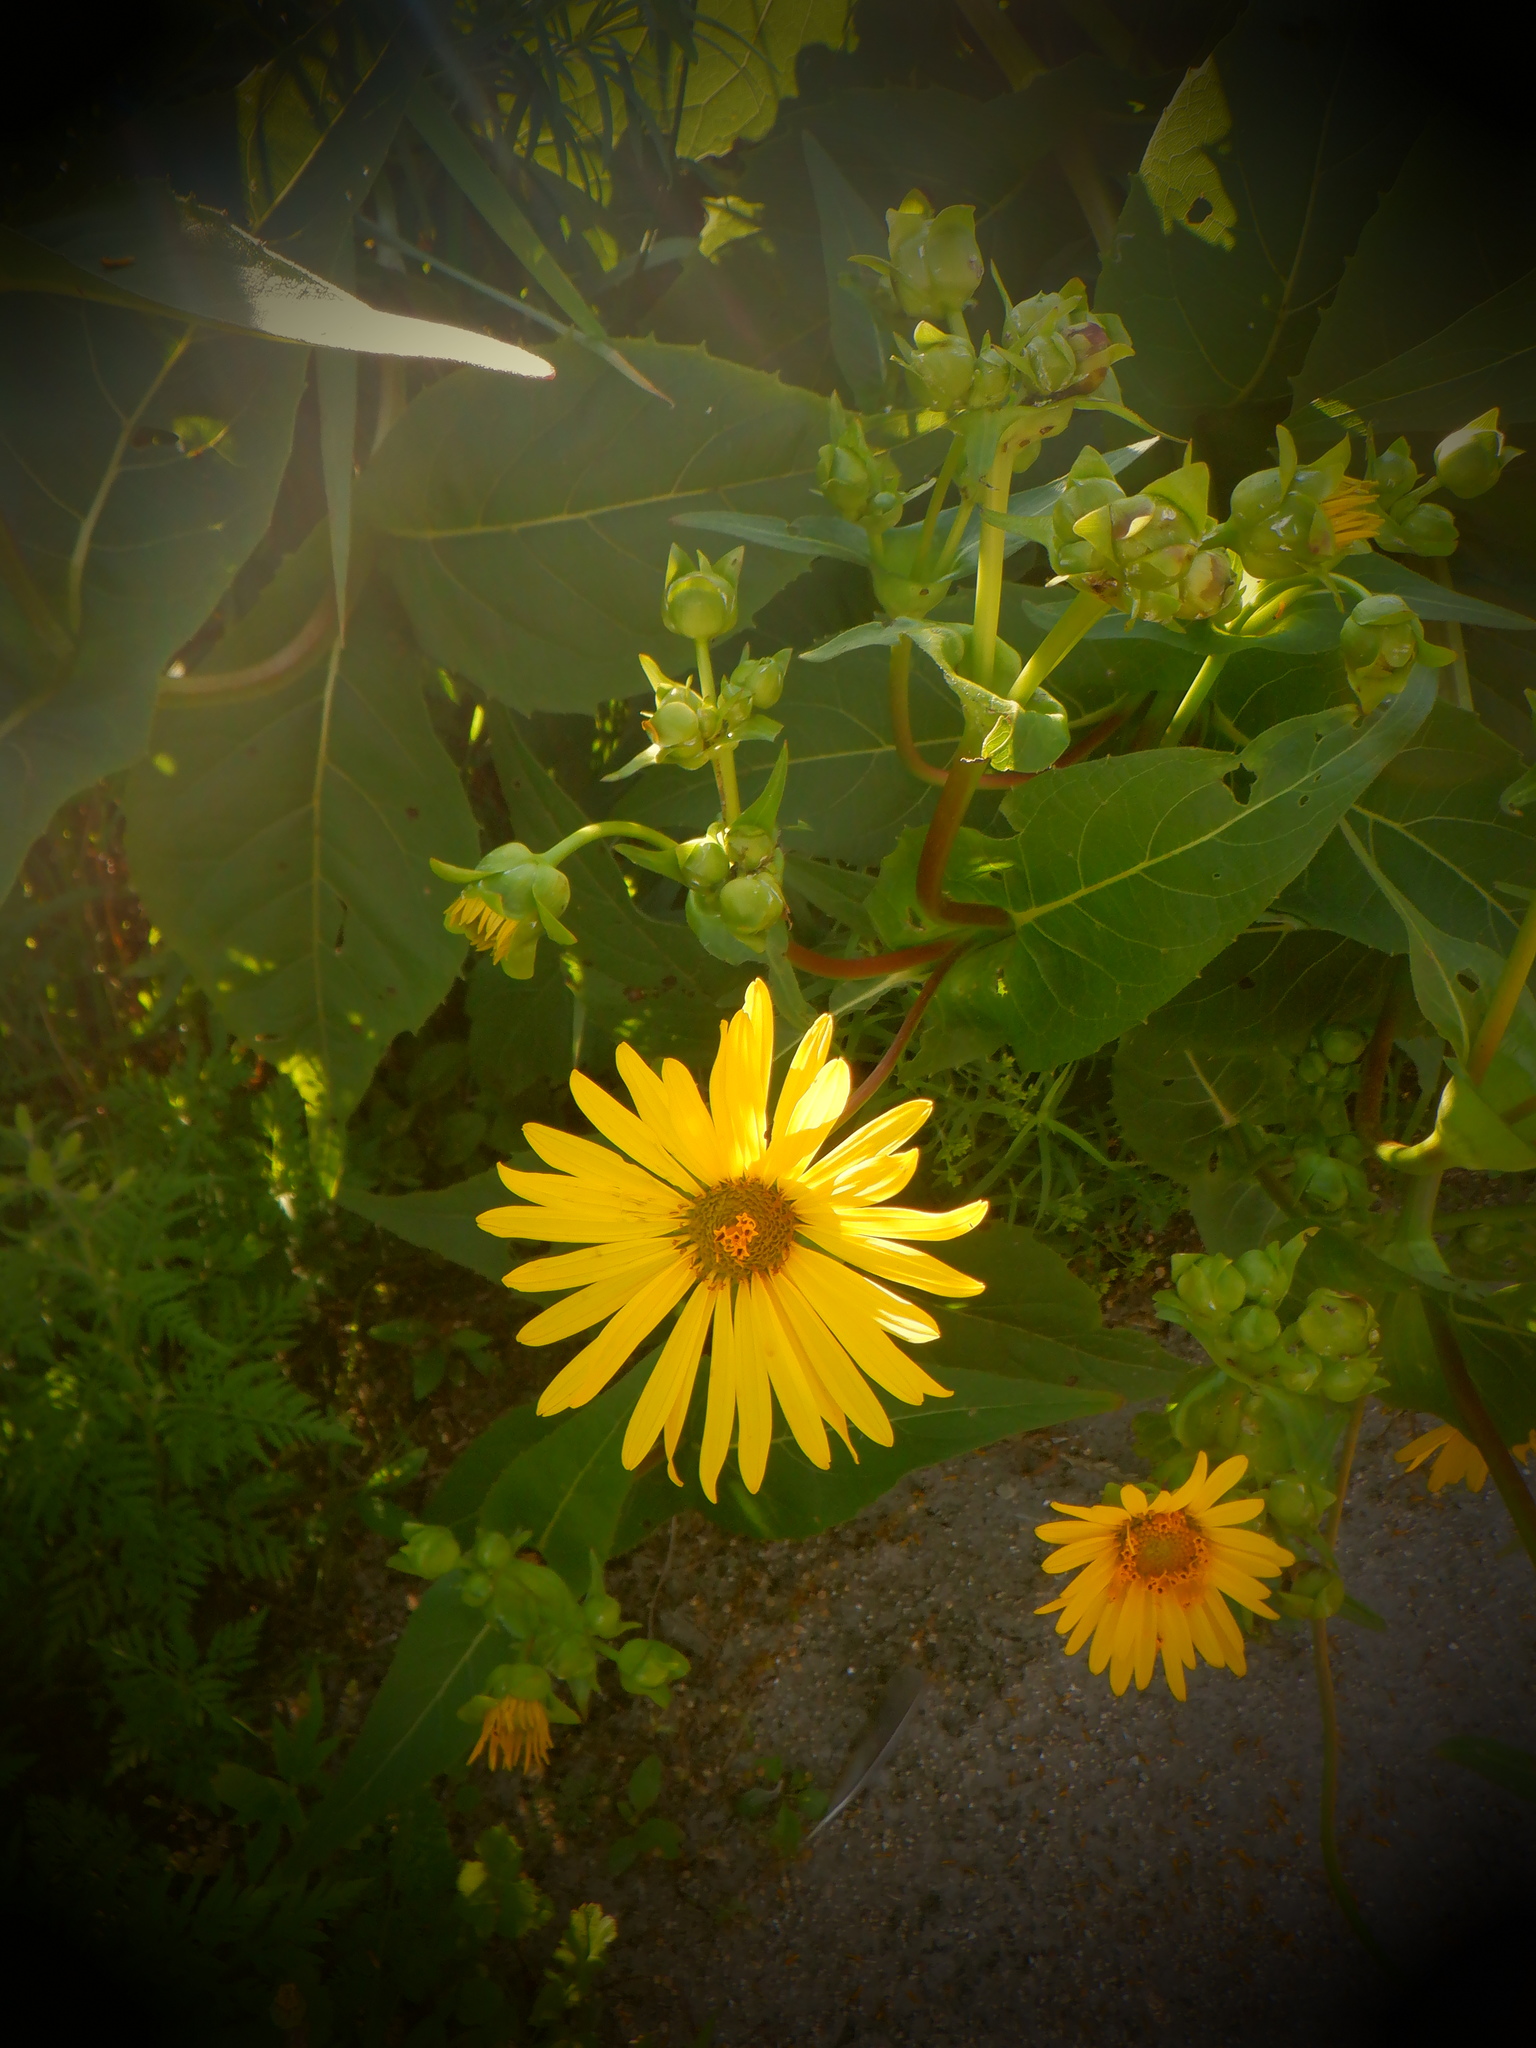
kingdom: Plantae
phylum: Tracheophyta
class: Magnoliopsida
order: Asterales
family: Asteraceae
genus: Silphium
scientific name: Silphium perfoliatum
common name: Cup-plant
